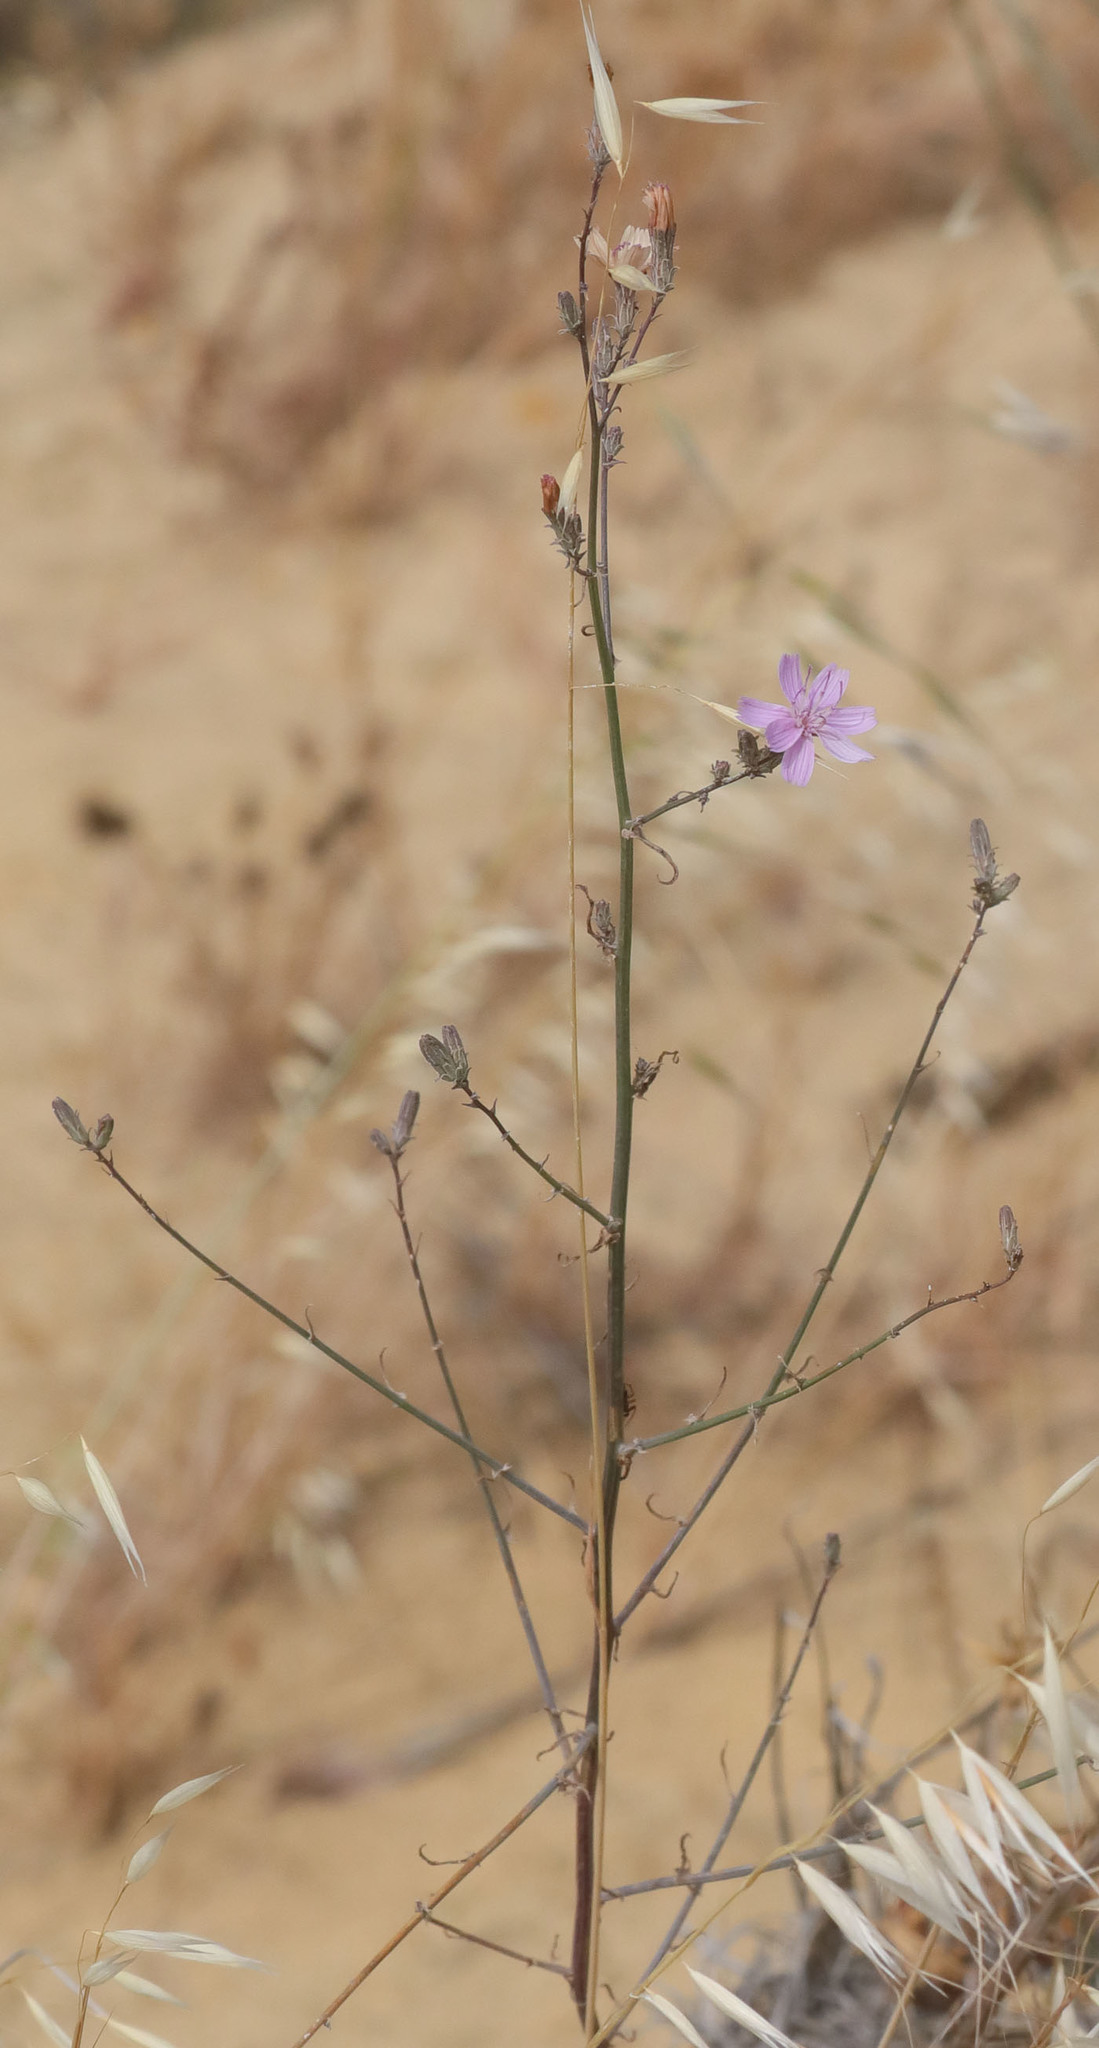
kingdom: Plantae
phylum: Tracheophyta
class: Magnoliopsida
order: Asterales
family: Asteraceae
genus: Stephanomeria
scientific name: Stephanomeria virgata
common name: Virgate wirelettuce
